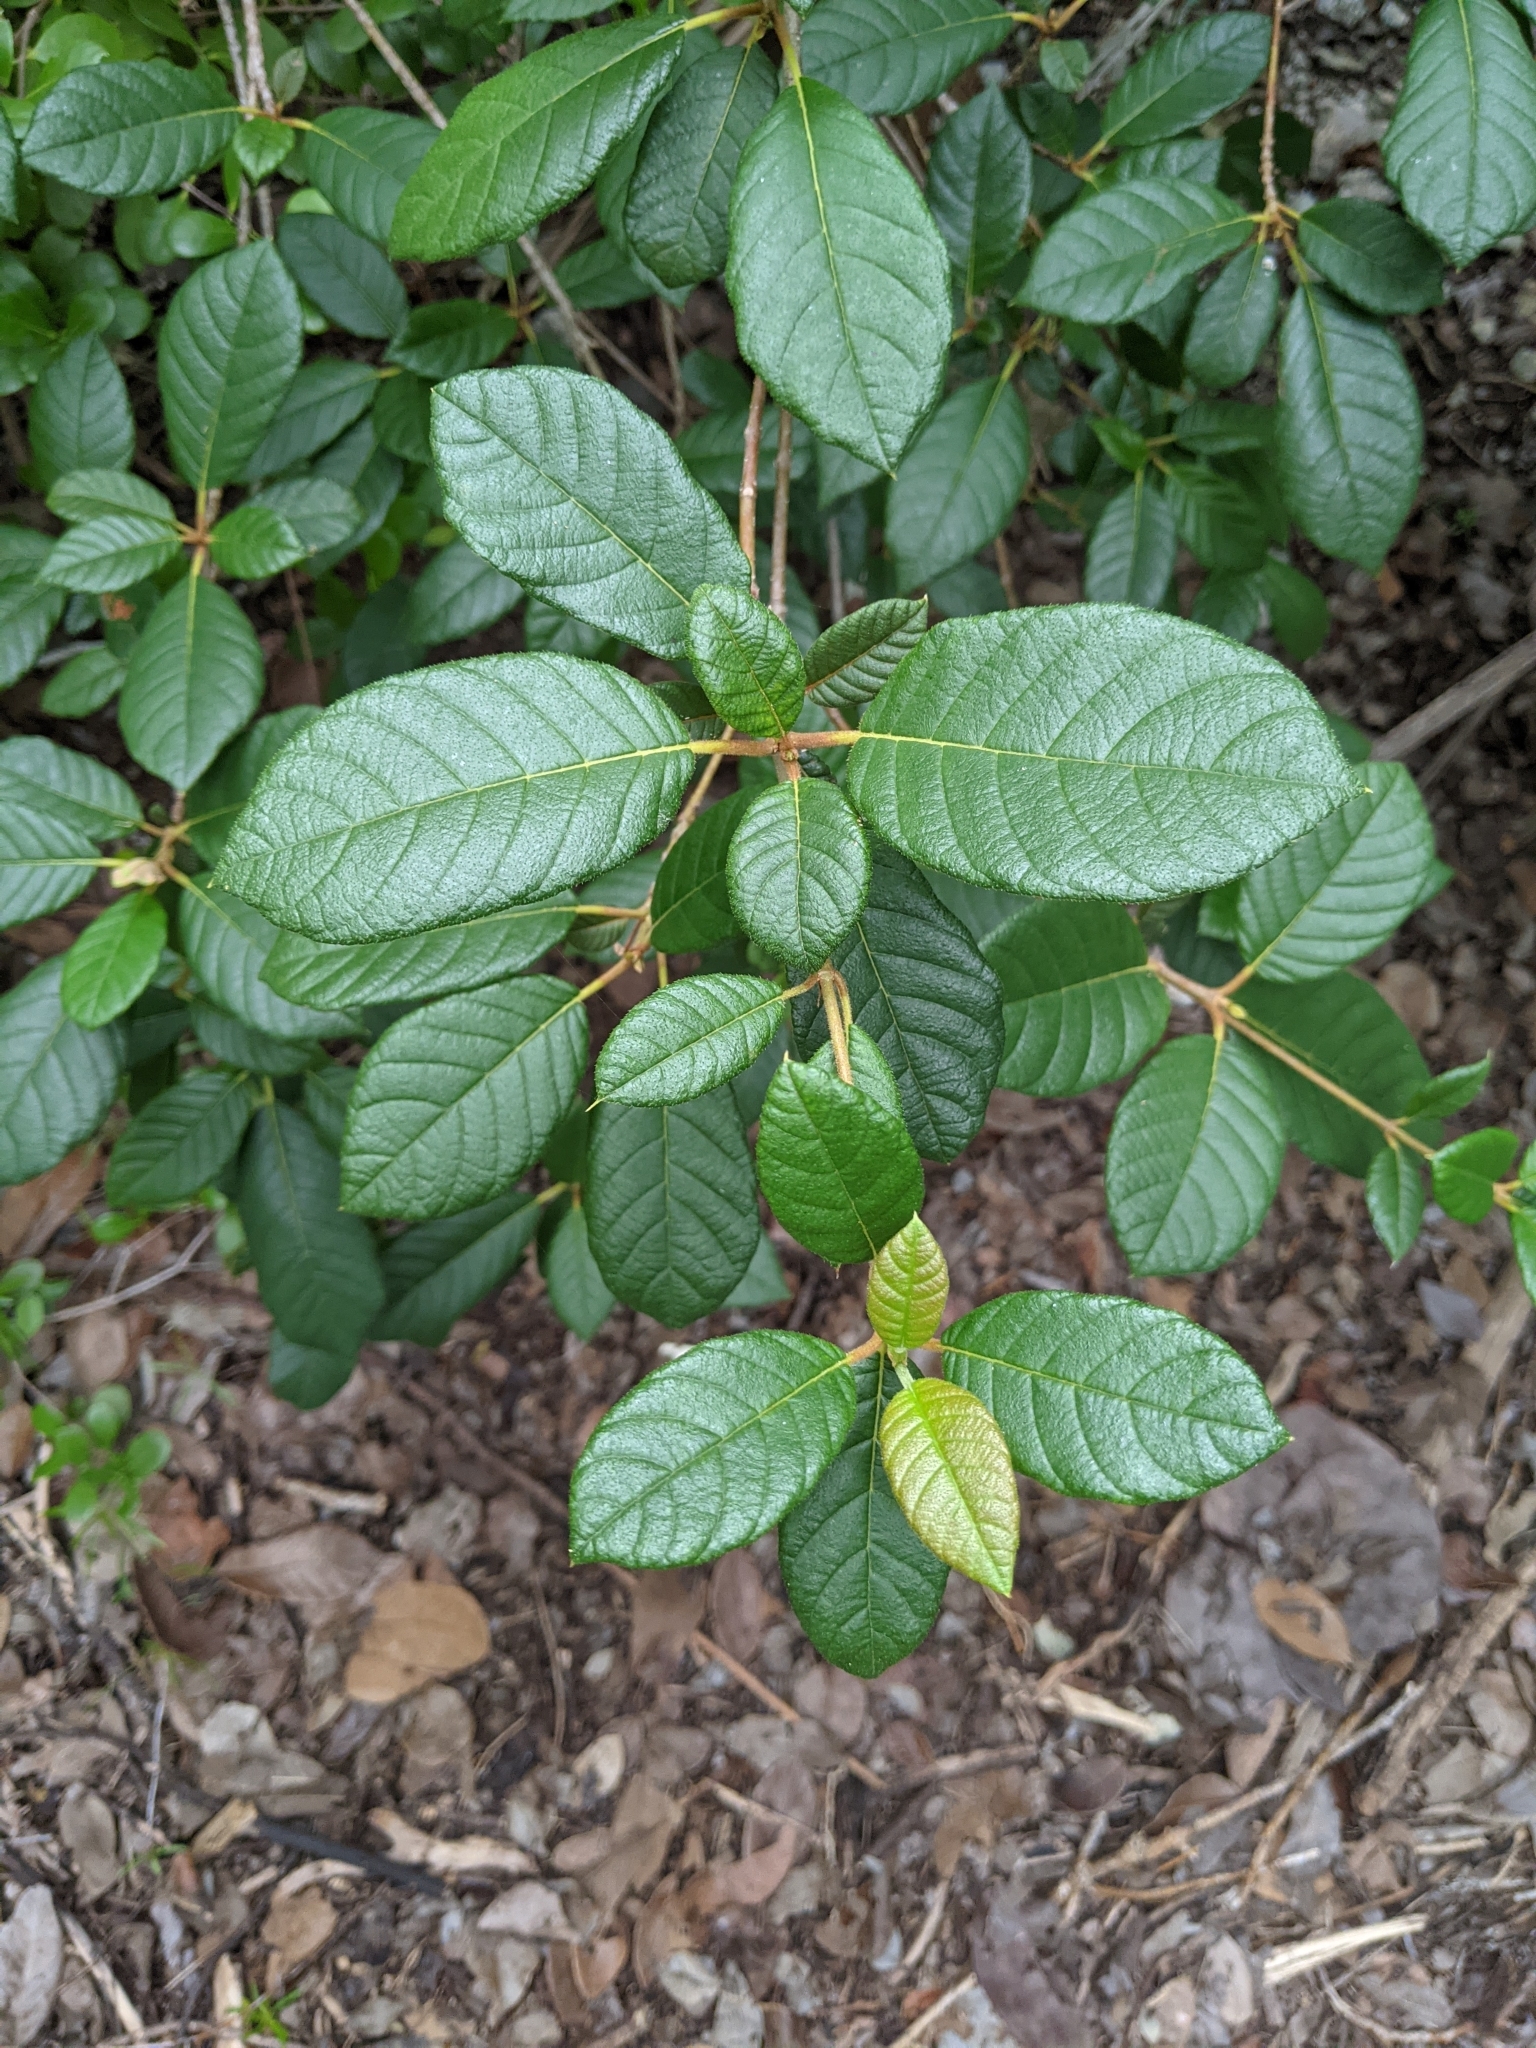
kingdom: Plantae
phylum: Tracheophyta
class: Magnoliopsida
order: Gentianales
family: Rubiaceae
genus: Guettarda
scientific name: Guettarda scabra
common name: Pigeon bay
